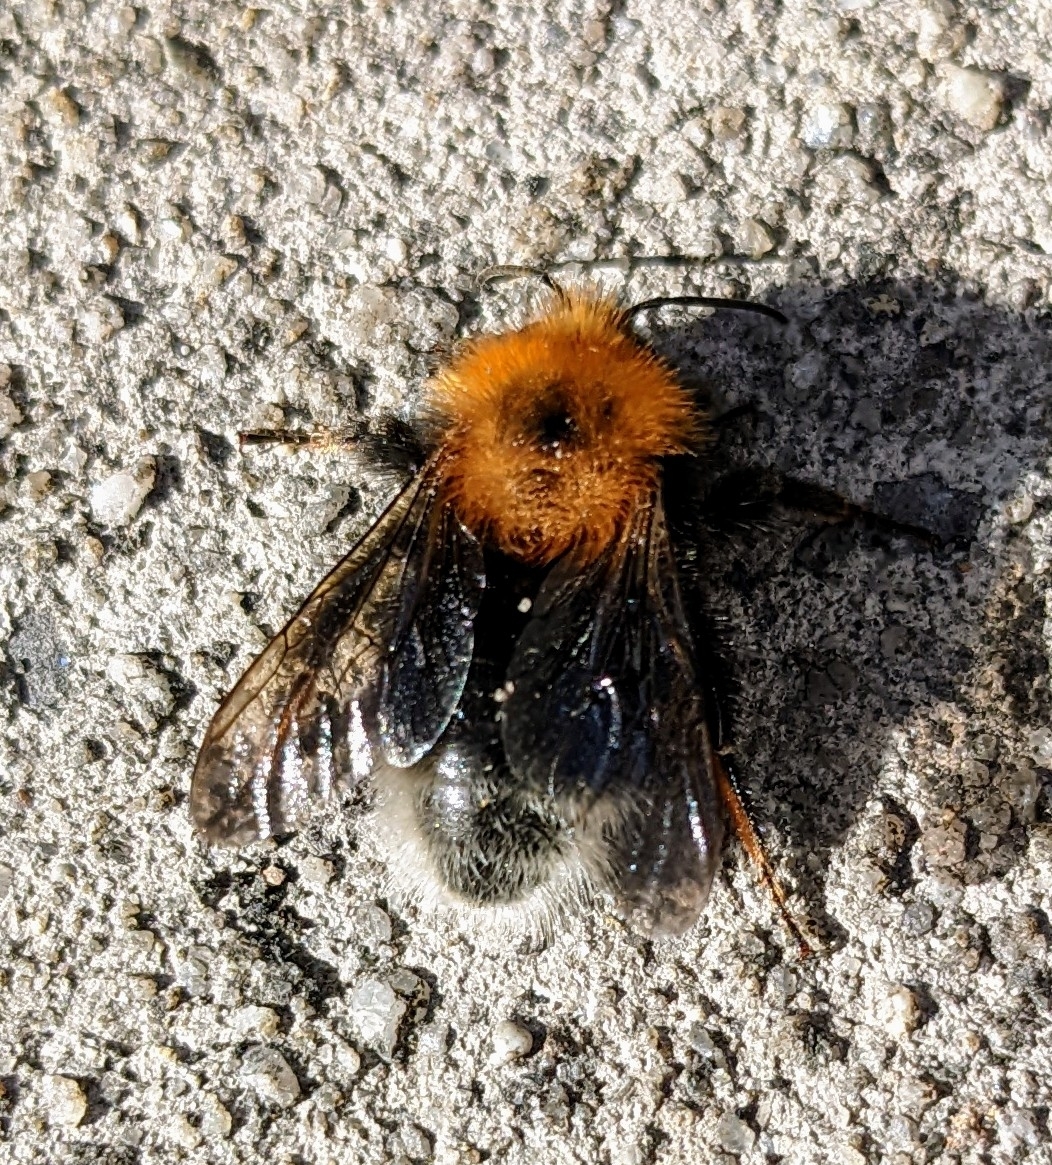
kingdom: Animalia
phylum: Arthropoda
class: Insecta
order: Hymenoptera
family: Apidae
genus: Bombus
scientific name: Bombus hypnorum
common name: New garden bumblebee
